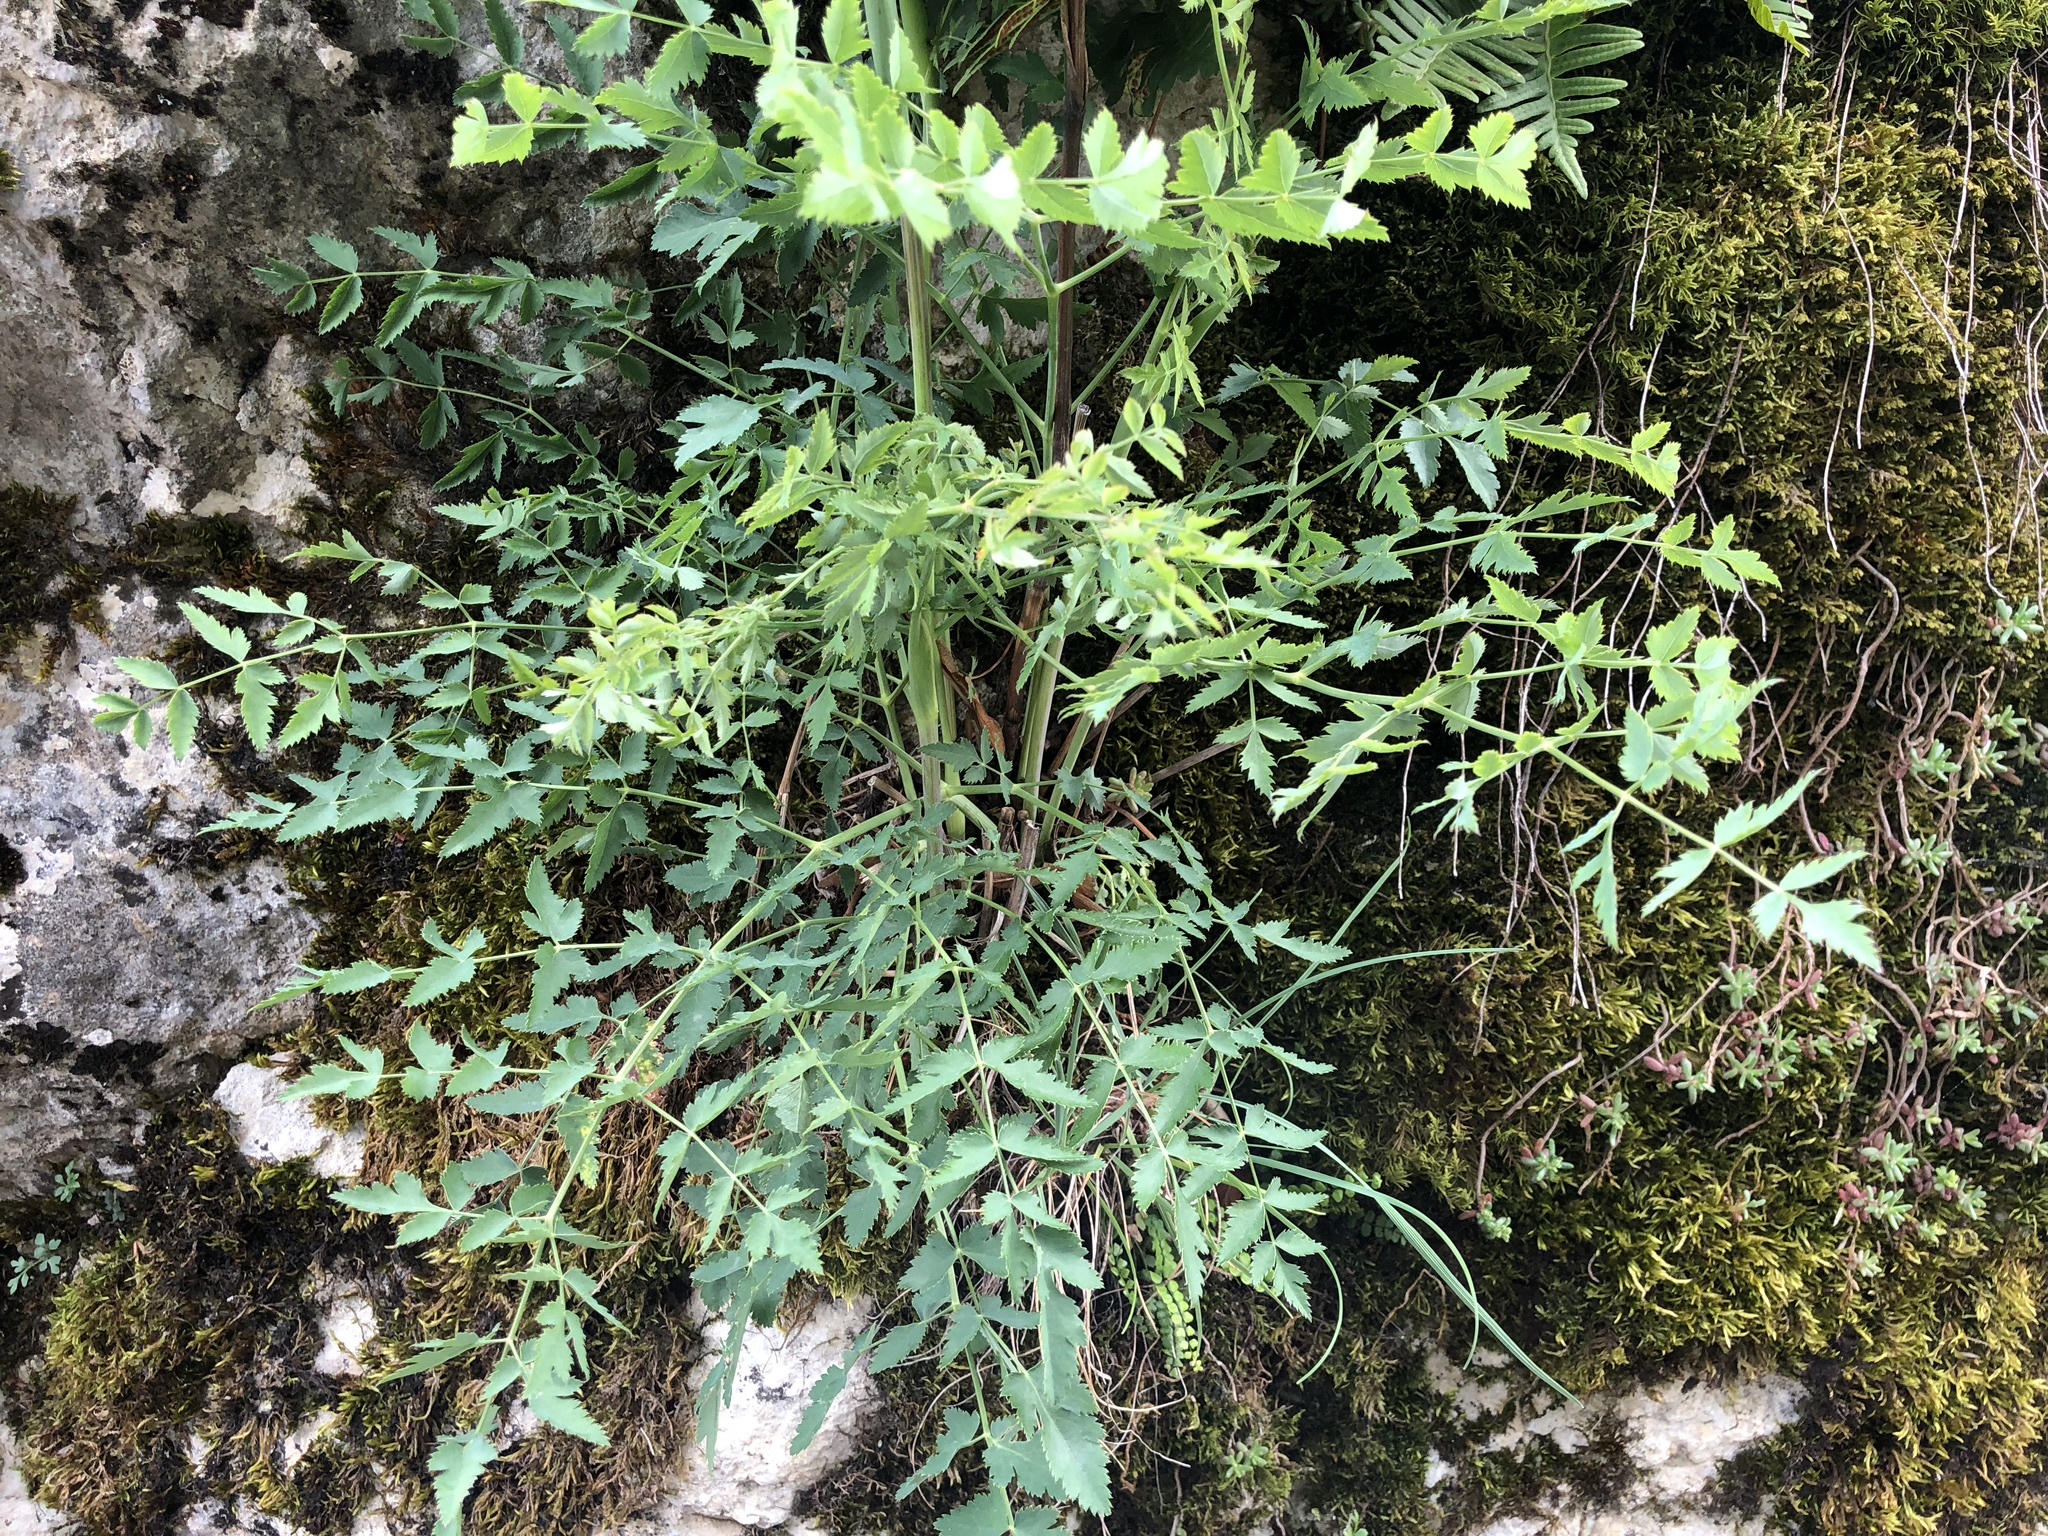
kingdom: Plantae
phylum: Tracheophyta
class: Magnoliopsida
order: Apiales
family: Apiaceae
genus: Cervaria
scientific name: Cervaria rivini
